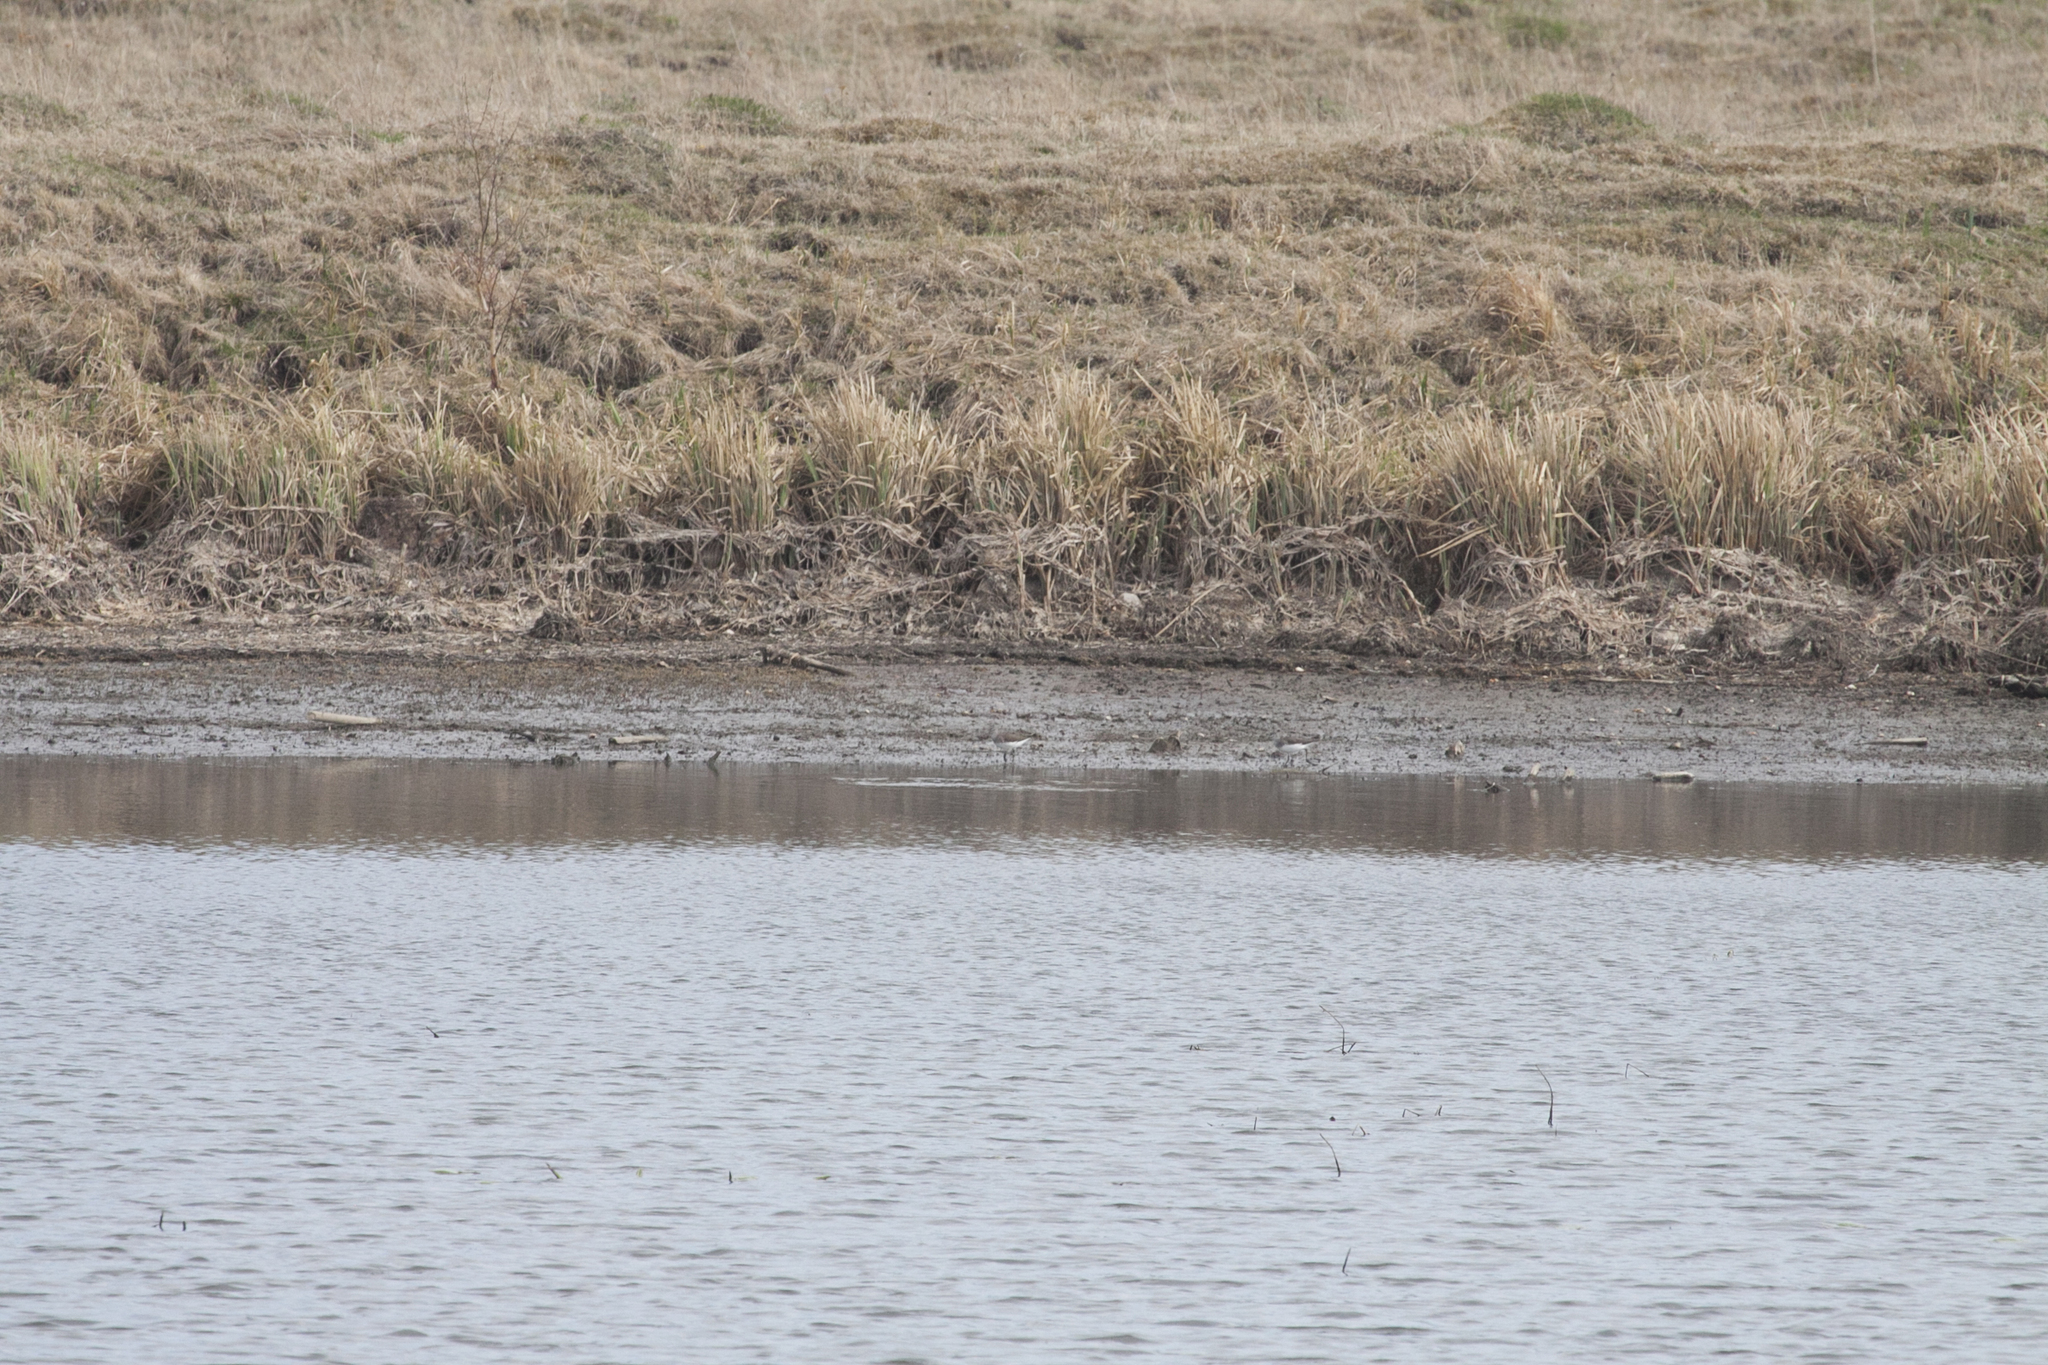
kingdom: Animalia
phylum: Chordata
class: Aves
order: Charadriiformes
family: Scolopacidae
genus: Tringa
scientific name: Tringa ochropus
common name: Green sandpiper
